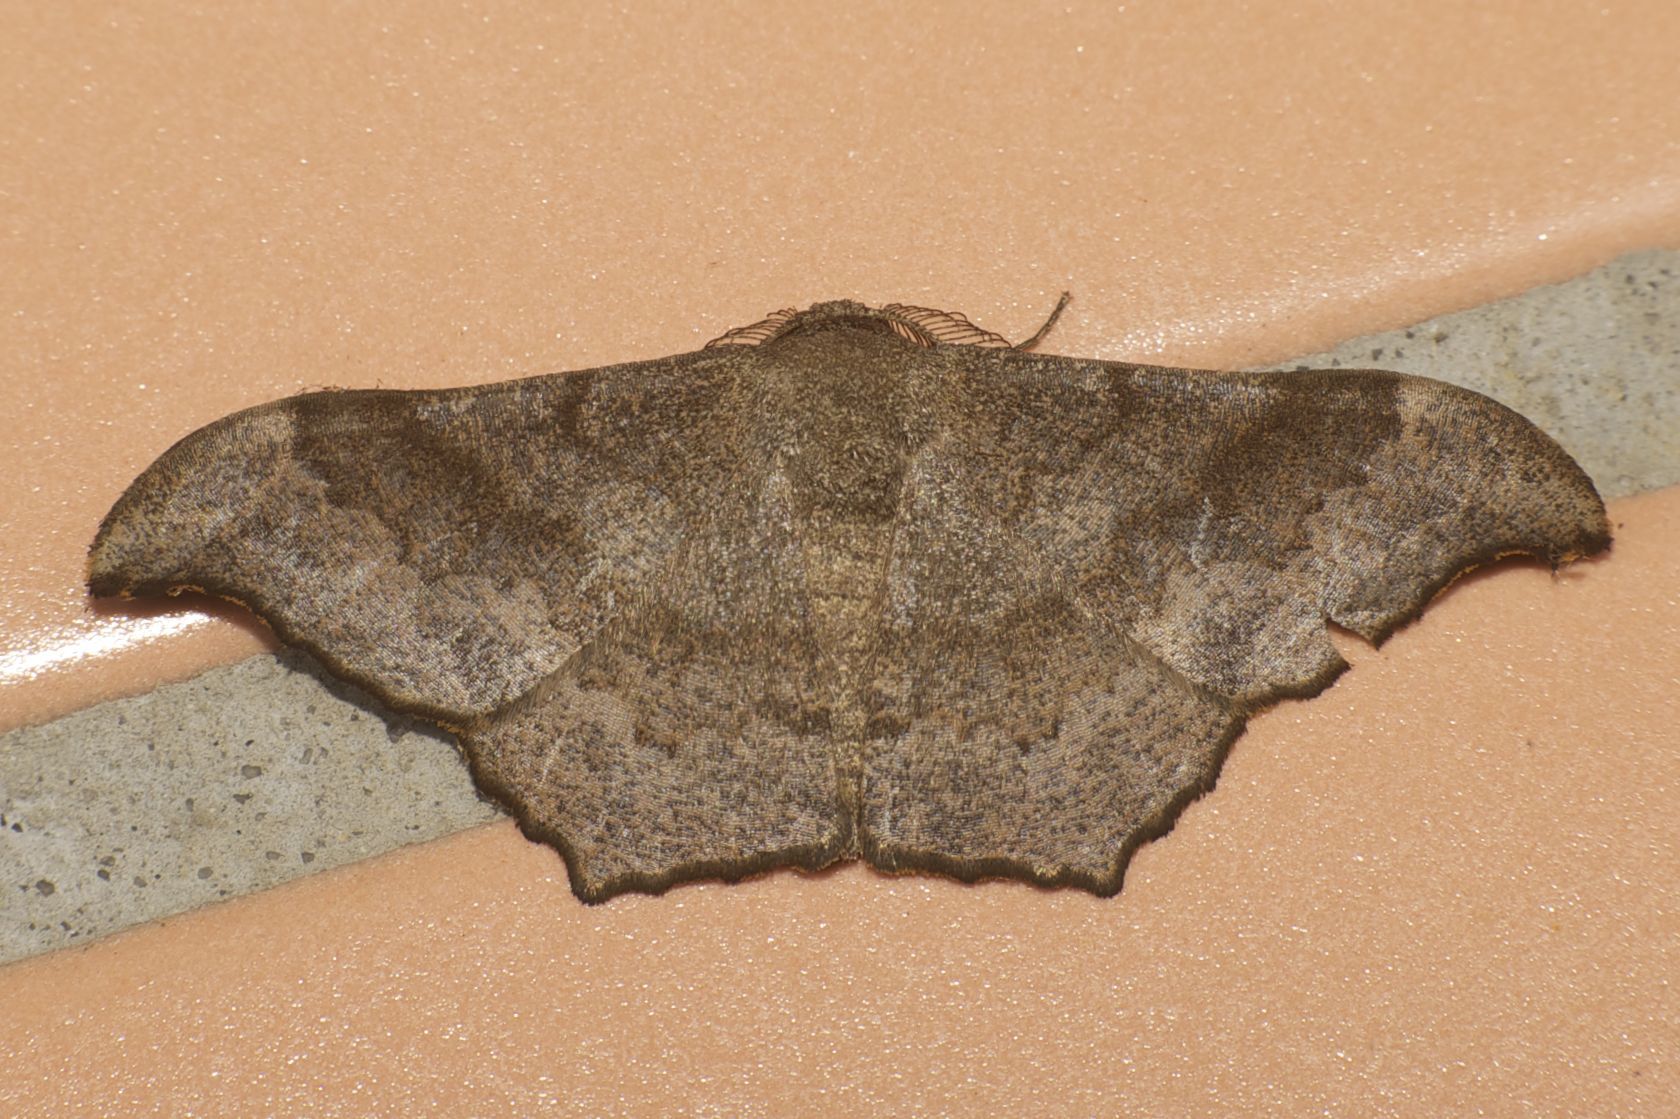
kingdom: Animalia
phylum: Arthropoda
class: Insecta
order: Lepidoptera
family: Geometridae
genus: Hyposidra
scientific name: Hyposidra talaca
